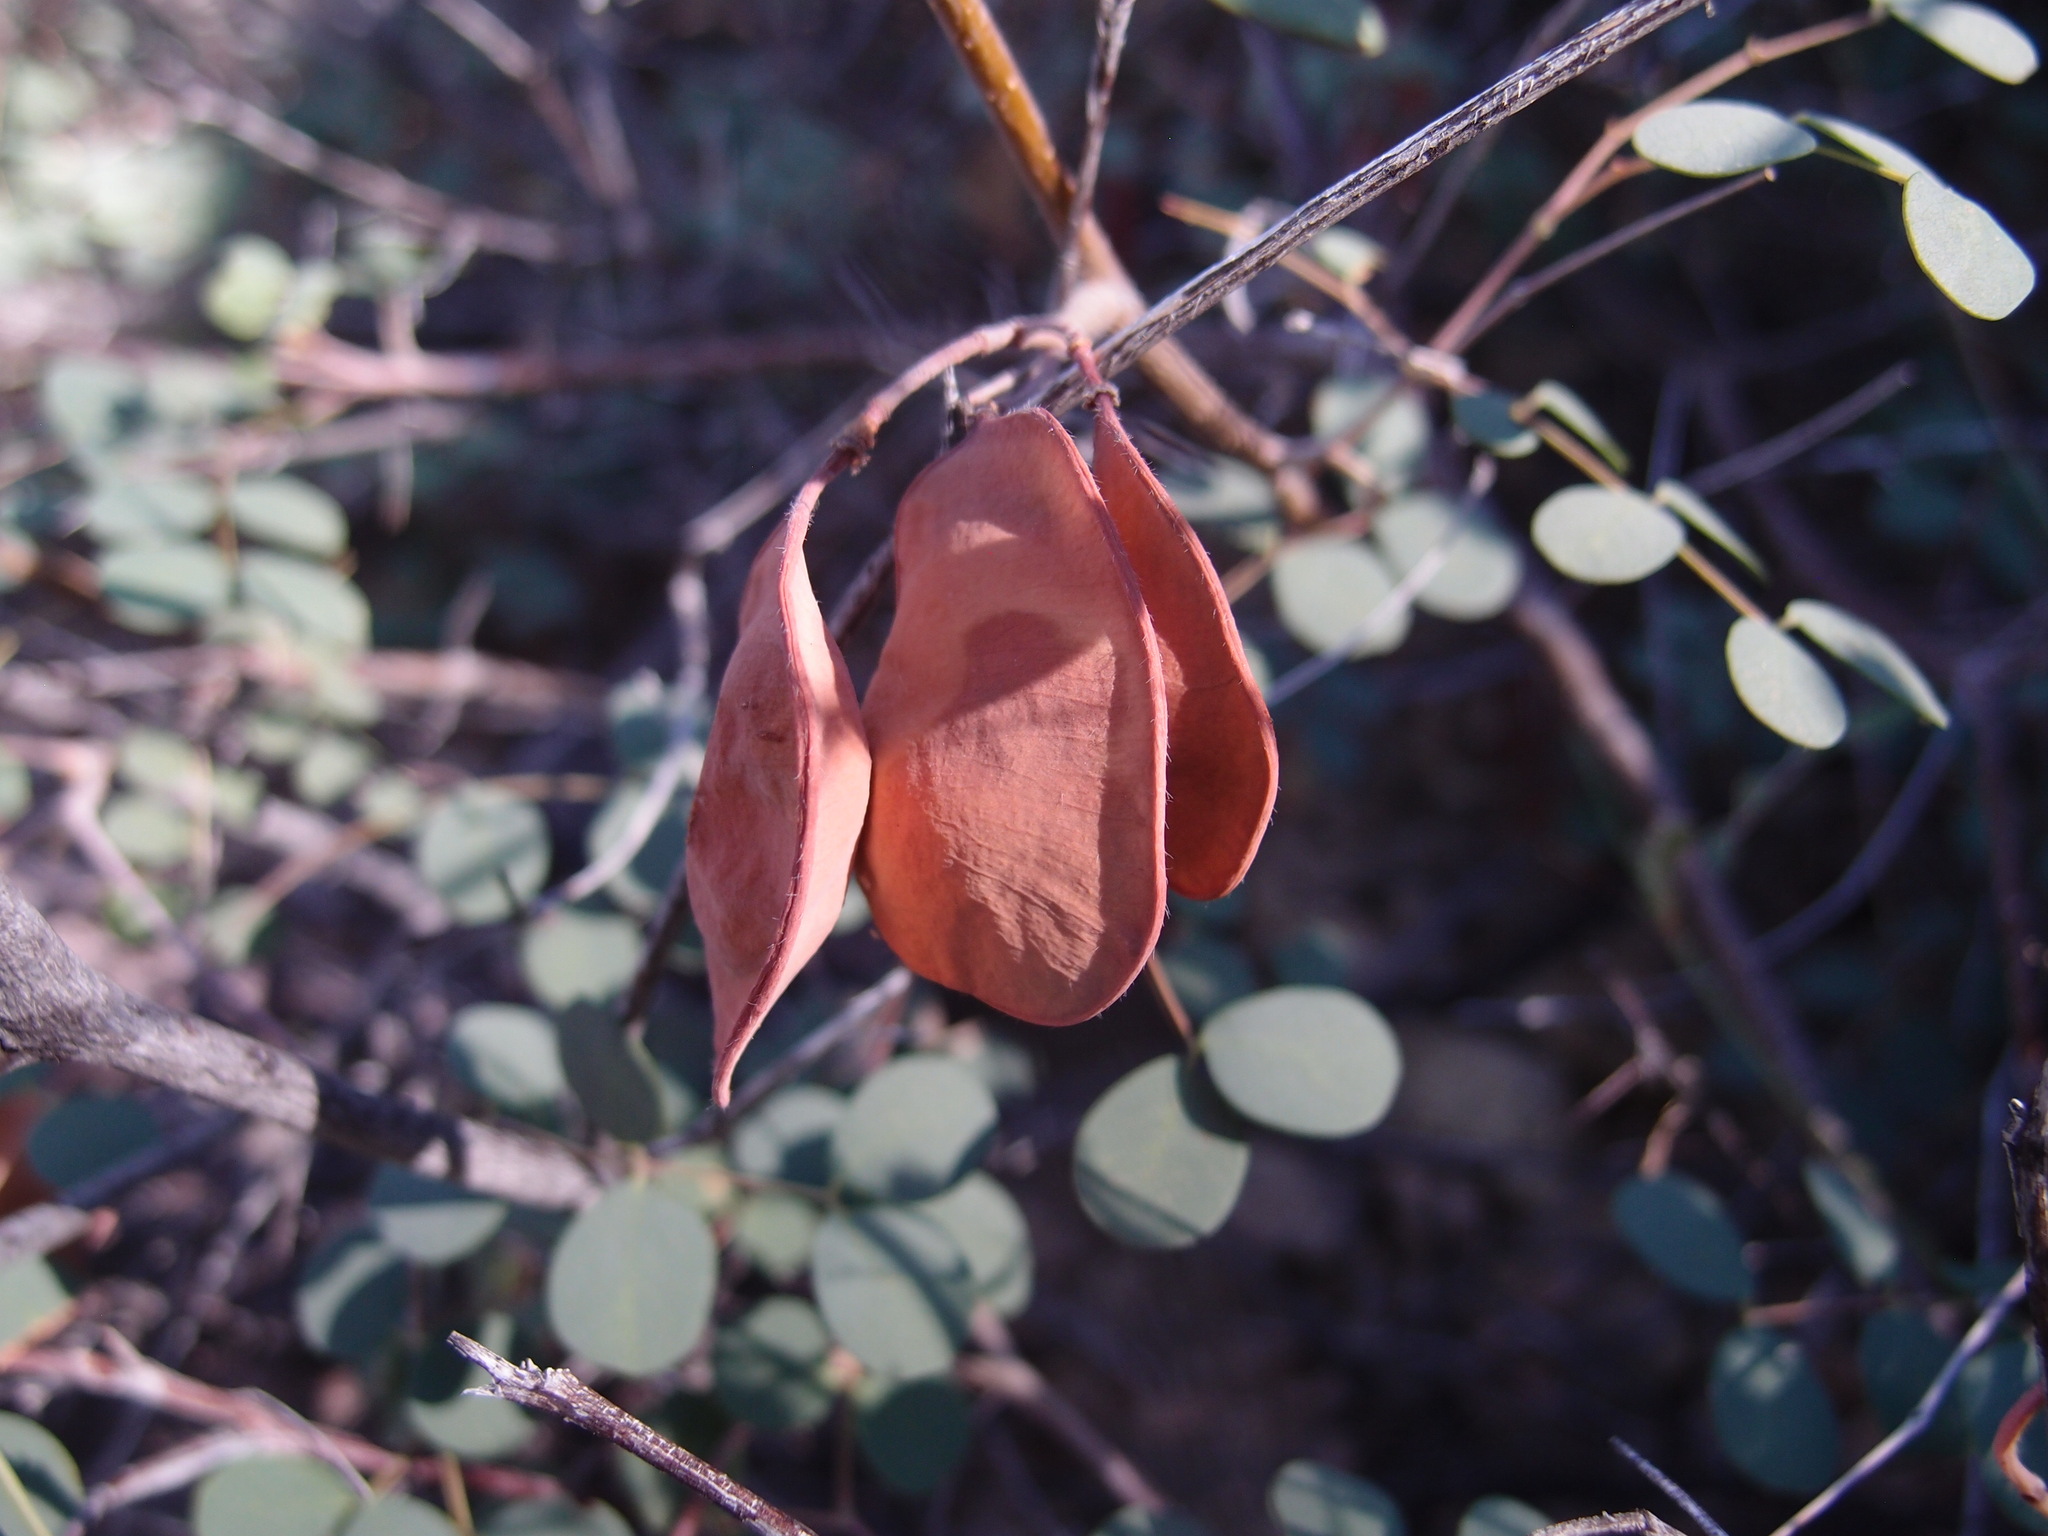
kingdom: Plantae
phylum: Tracheophyta
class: Magnoliopsida
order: Fabales
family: Fabaceae
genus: Coulteria
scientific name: Coulteria pumila
